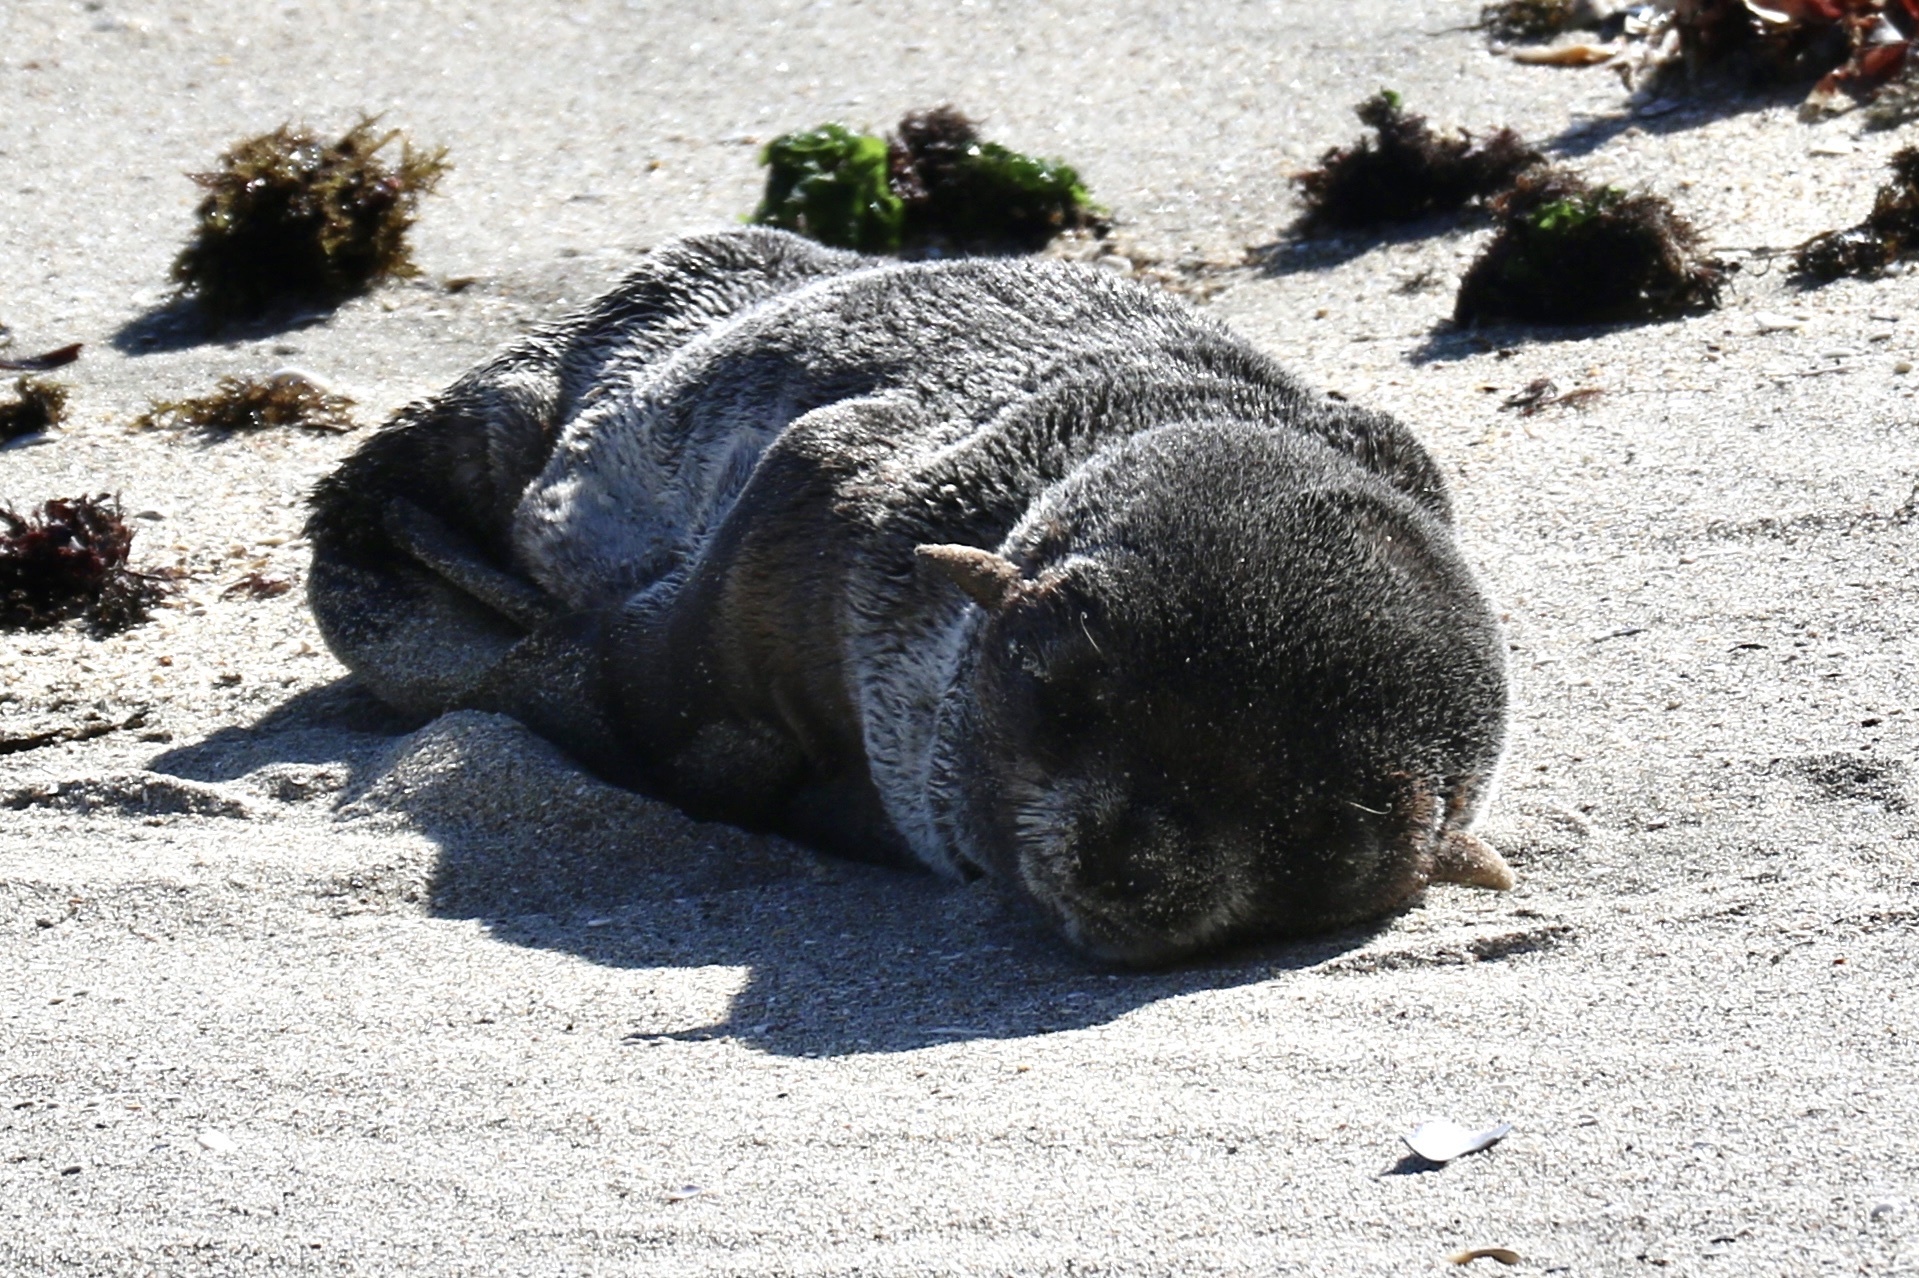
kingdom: Animalia
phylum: Chordata
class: Mammalia
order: Carnivora
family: Otariidae
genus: Callorhinus
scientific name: Callorhinus ursinus
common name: Northern fur seal
